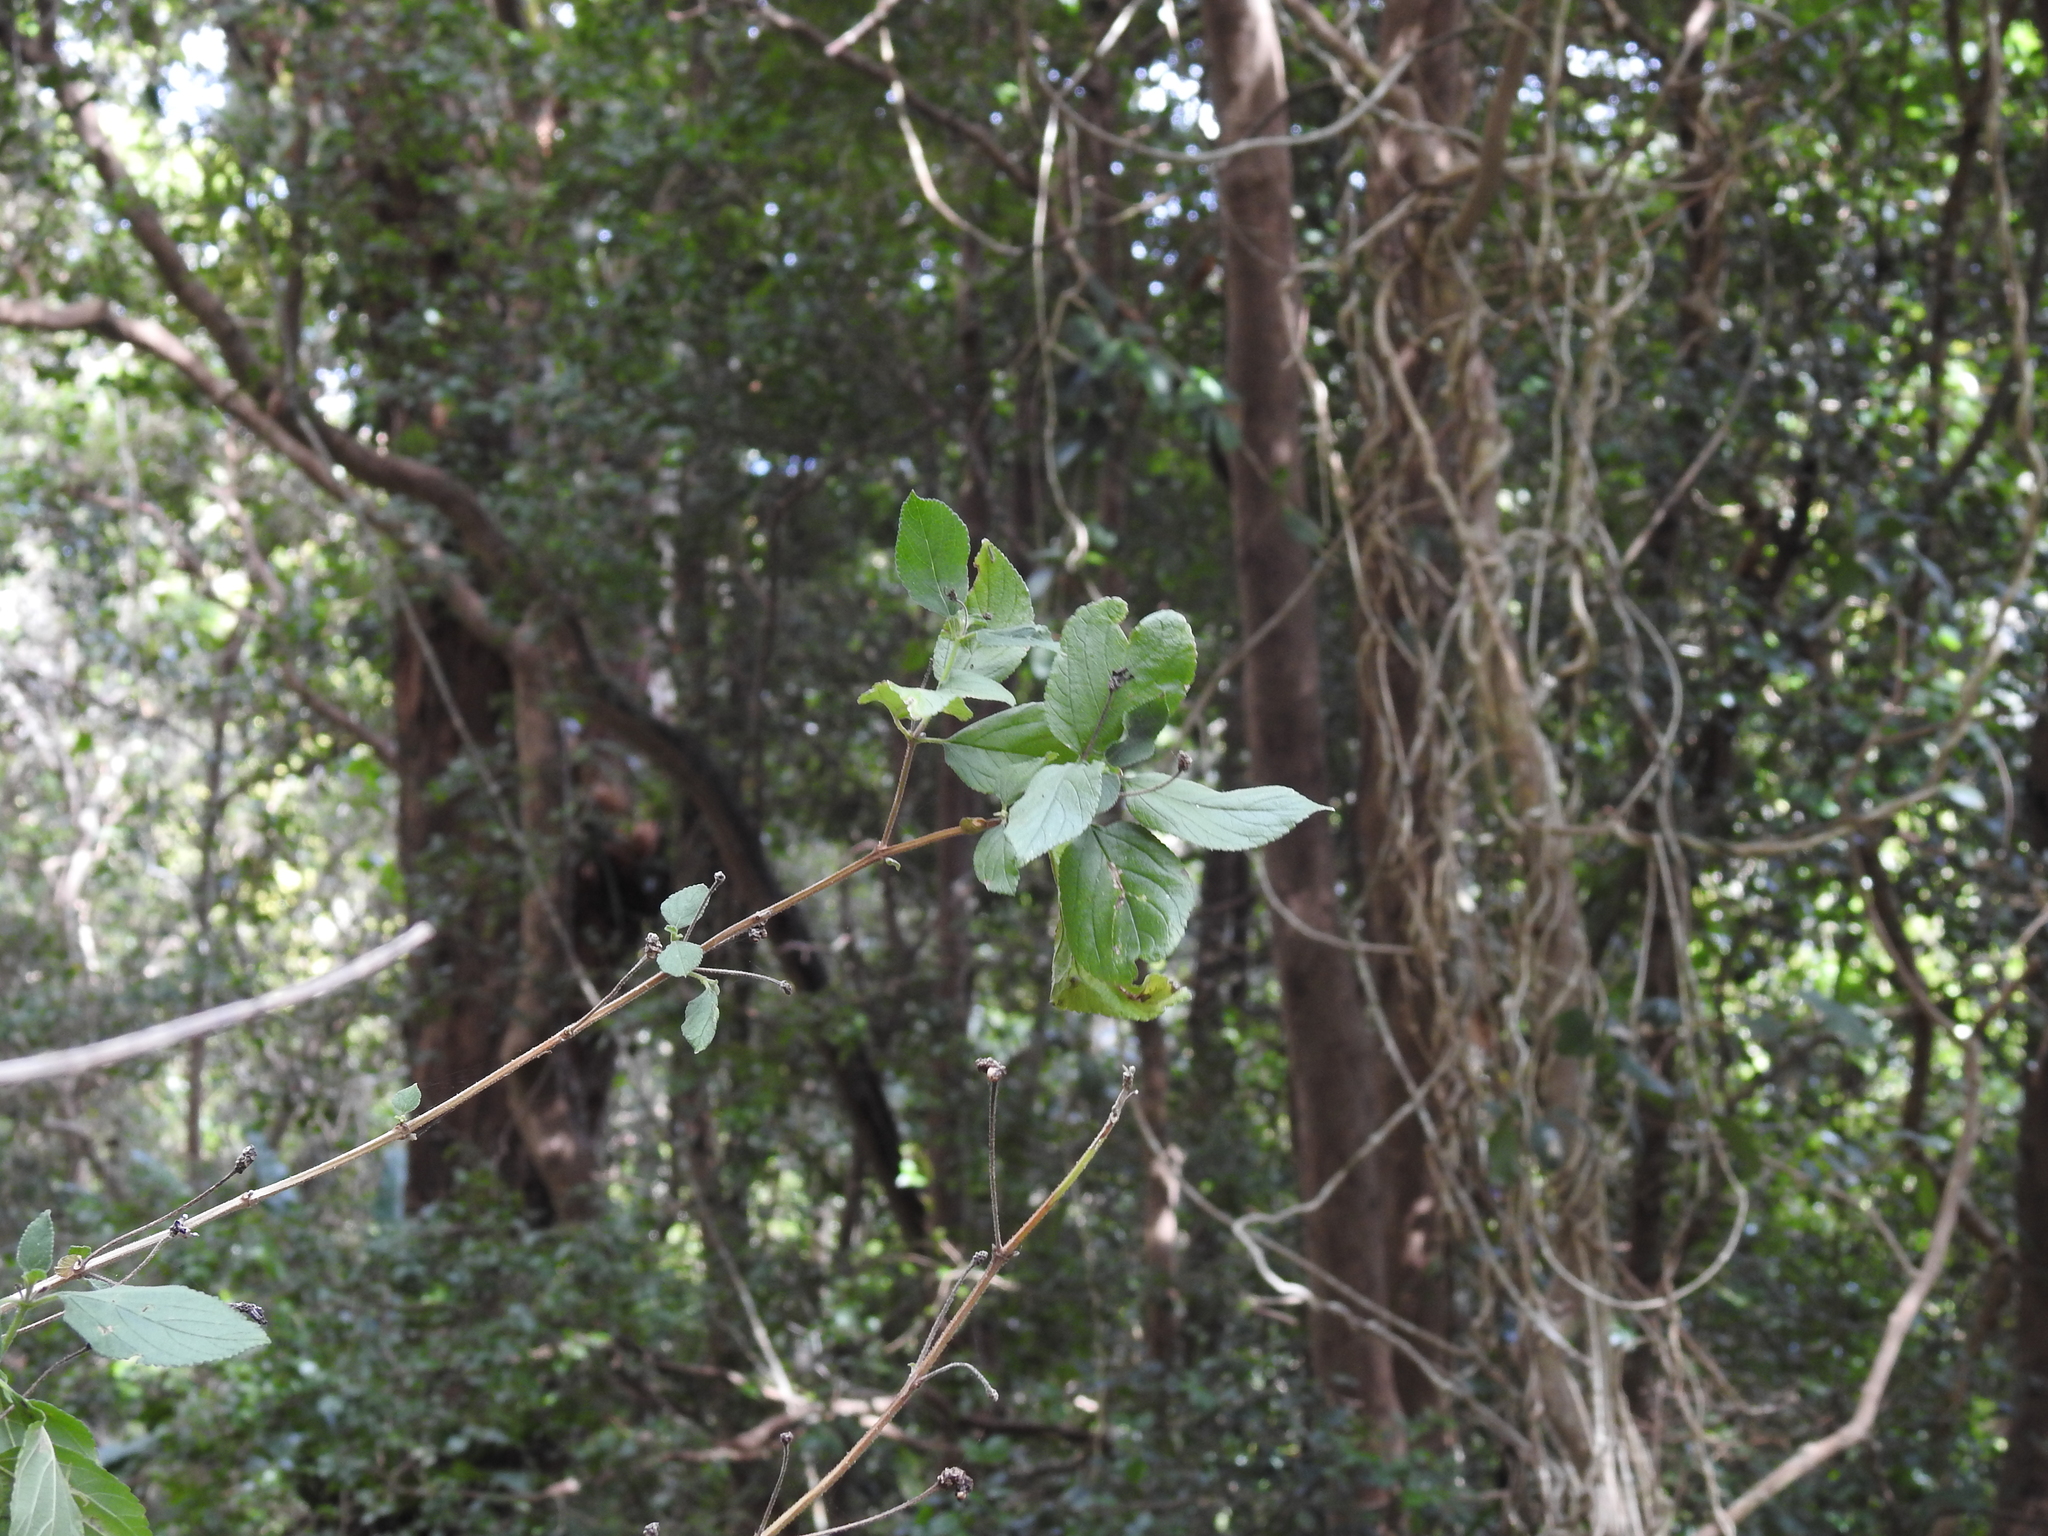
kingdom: Plantae
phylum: Tracheophyta
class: Magnoliopsida
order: Lamiales
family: Verbenaceae
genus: Lantana
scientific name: Lantana camara
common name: Lantana
